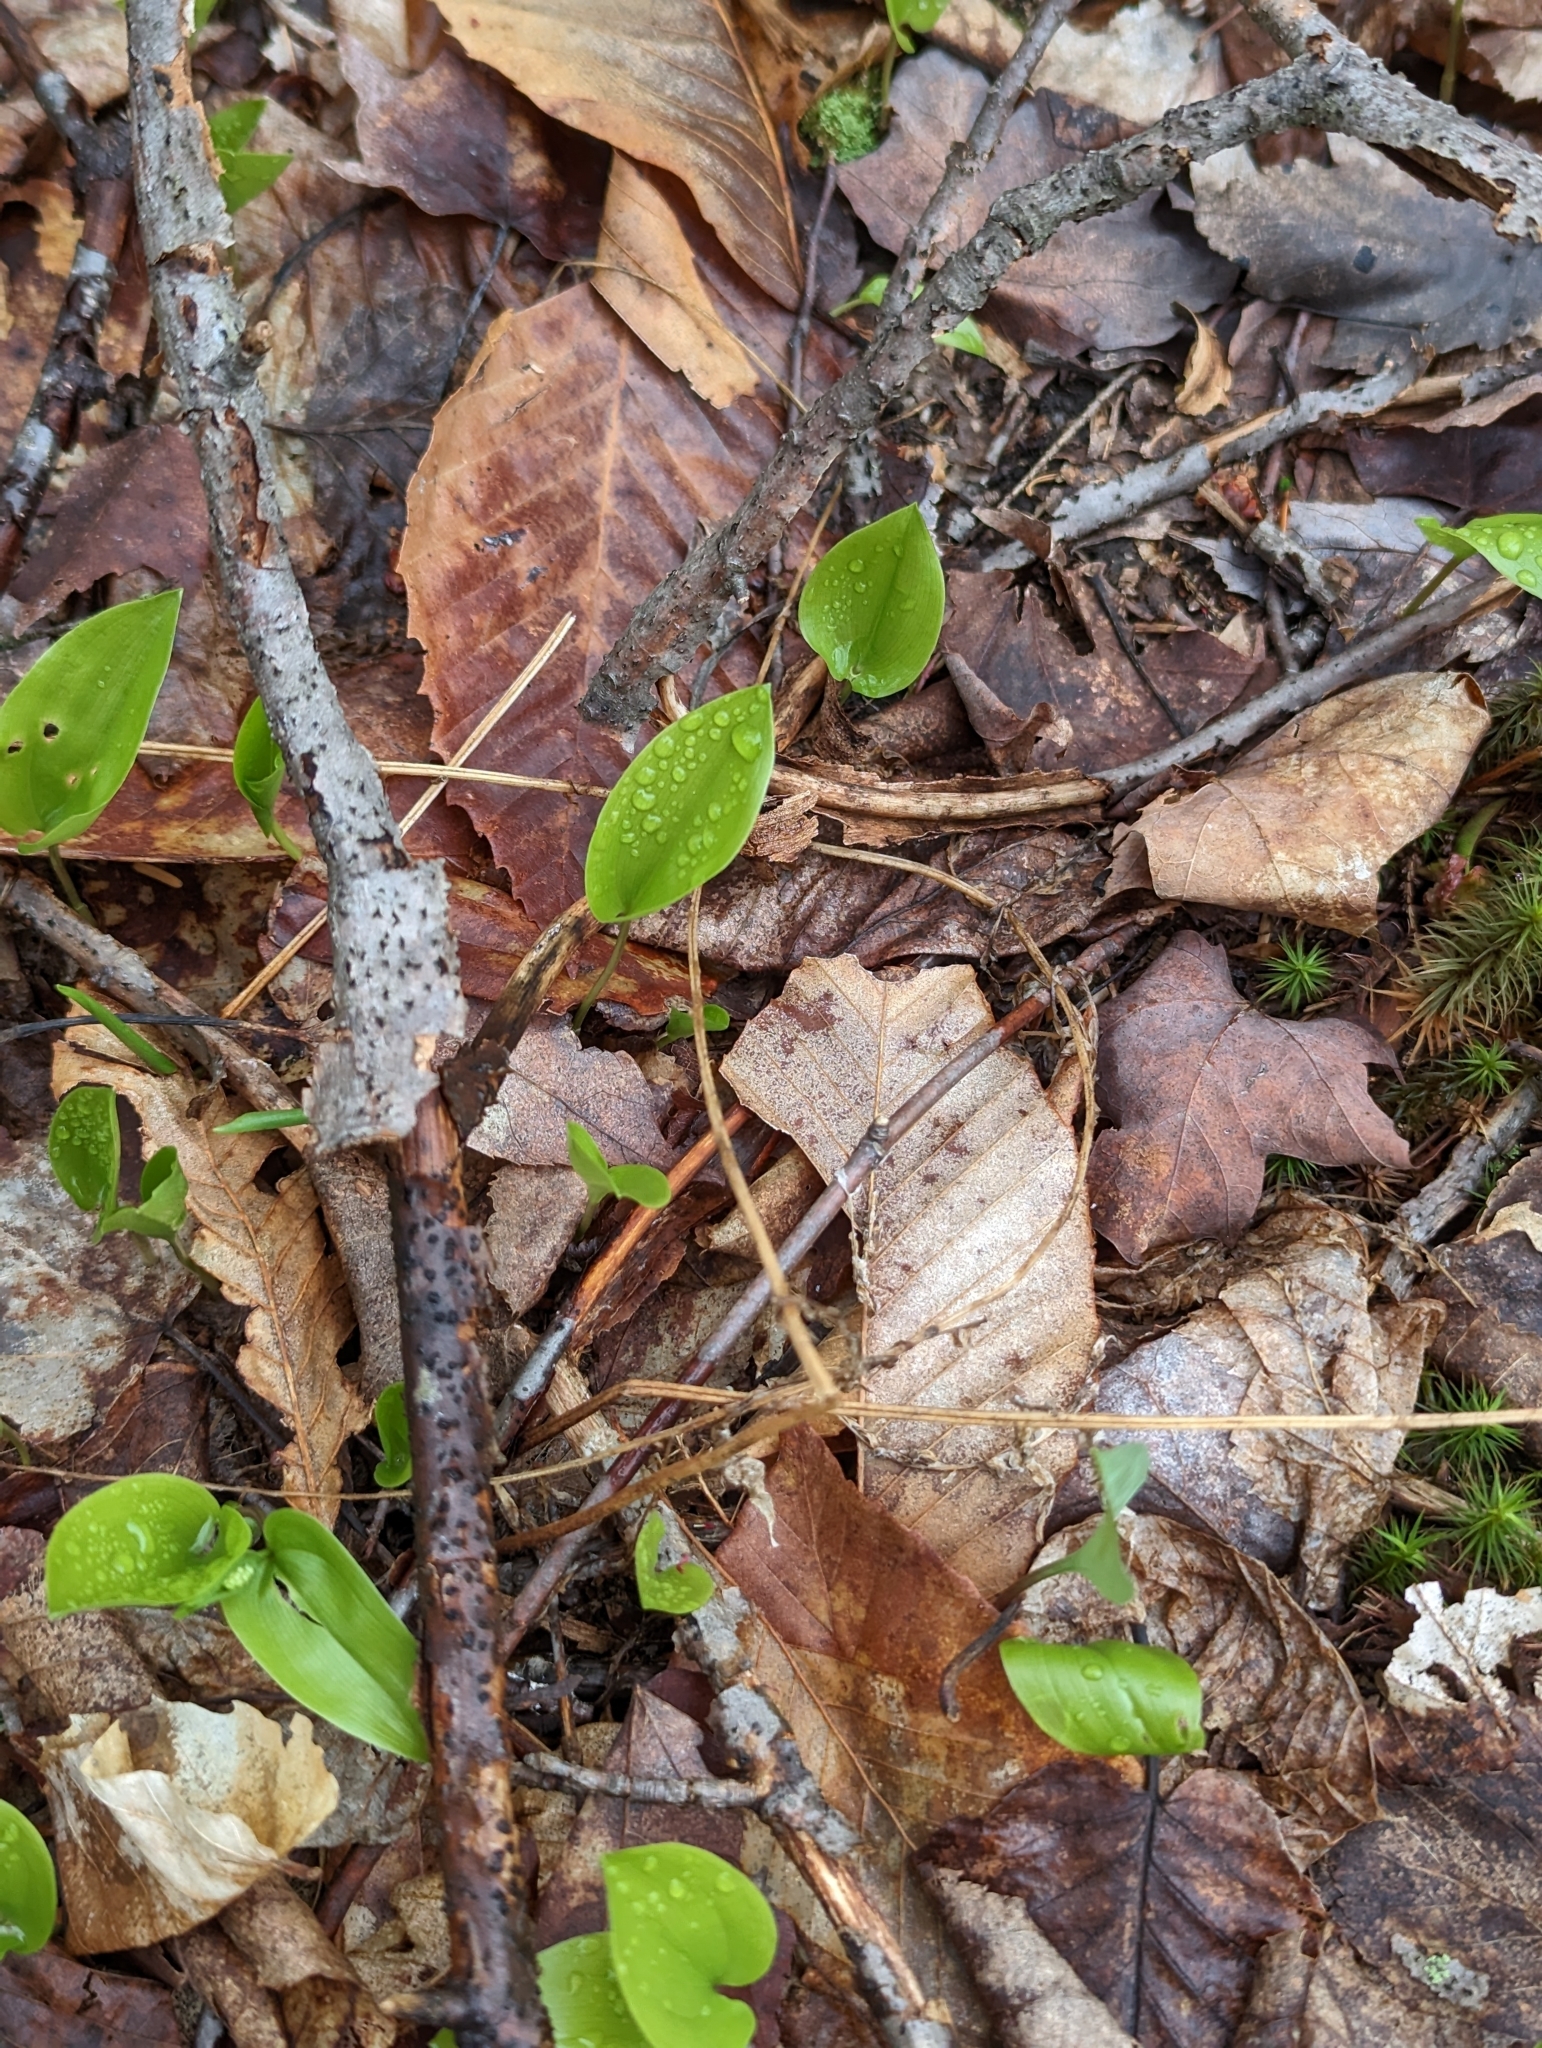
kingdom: Plantae
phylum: Tracheophyta
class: Liliopsida
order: Asparagales
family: Asparagaceae
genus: Maianthemum
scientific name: Maianthemum canadense
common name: False lily-of-the-valley
